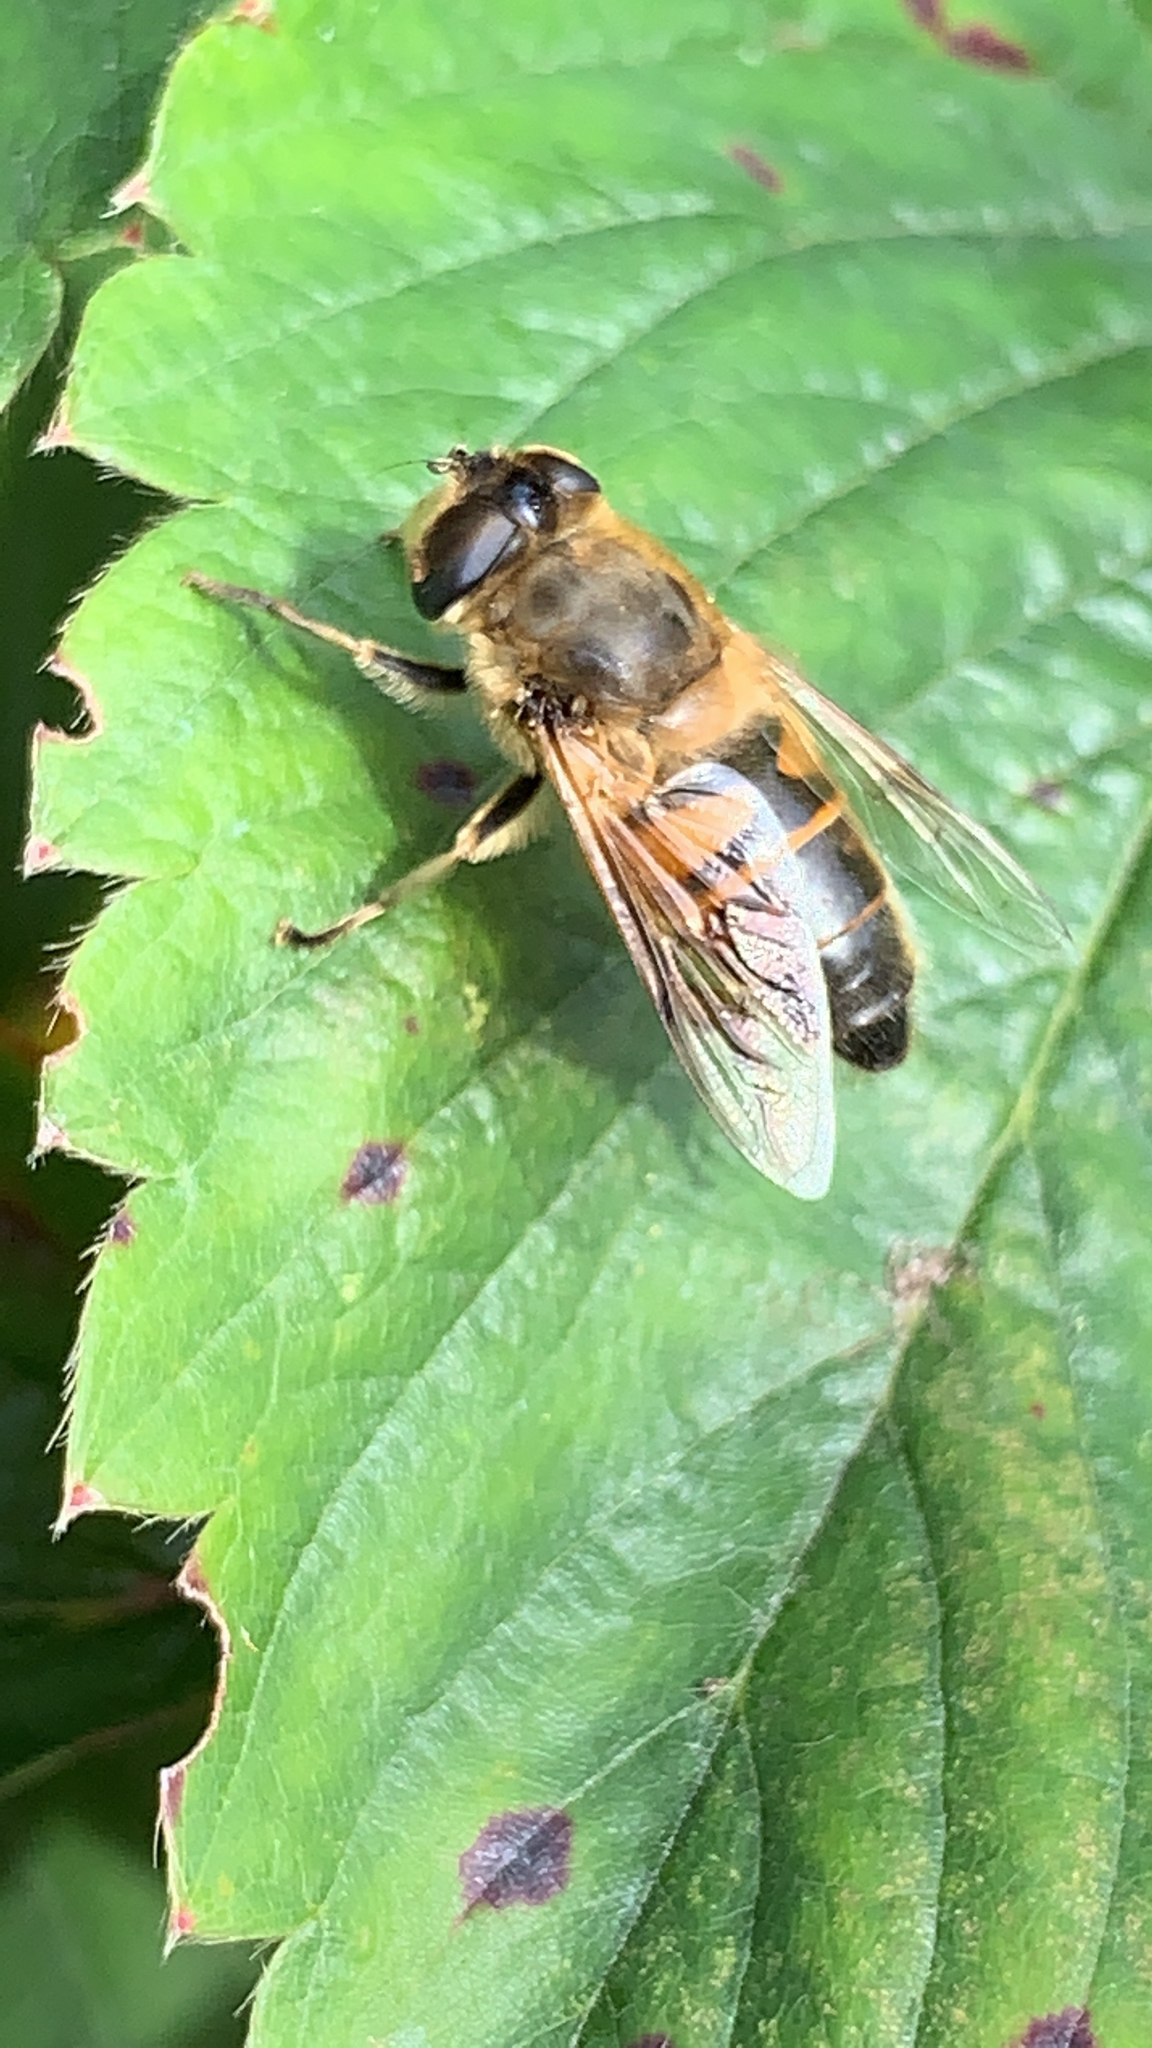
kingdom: Animalia
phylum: Arthropoda
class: Insecta
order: Diptera
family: Syrphidae
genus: Eristalis
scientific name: Eristalis tenax
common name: Drone fly
